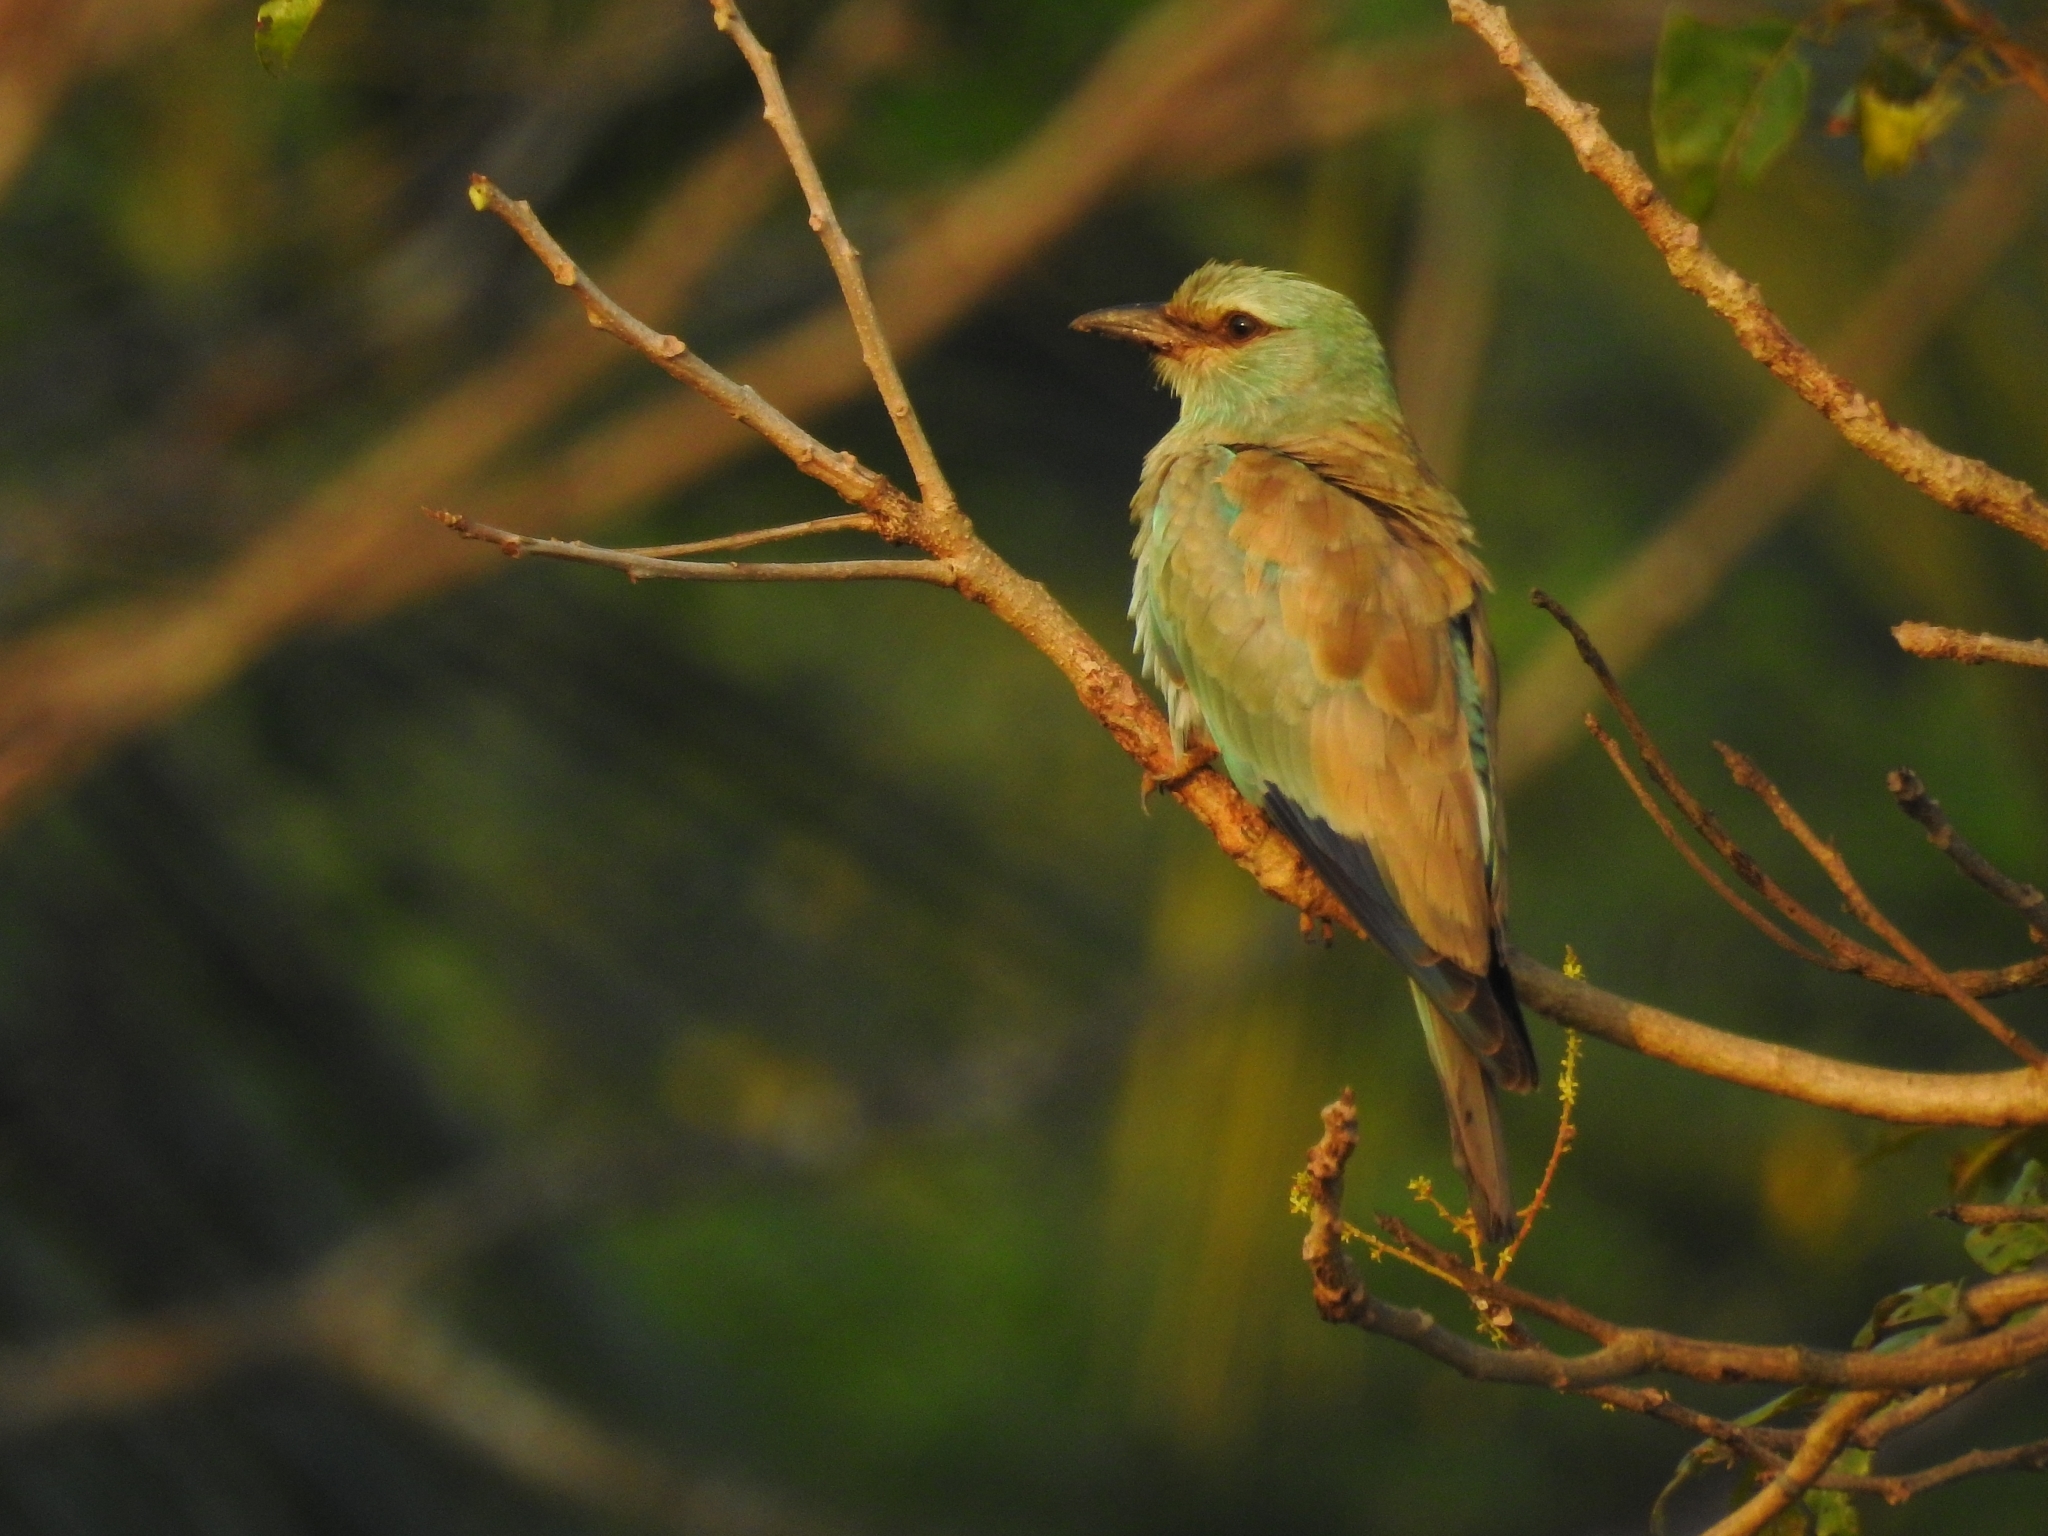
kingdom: Animalia
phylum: Chordata
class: Aves
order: Coraciiformes
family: Coraciidae
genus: Coracias
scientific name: Coracias garrulus
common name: European roller
